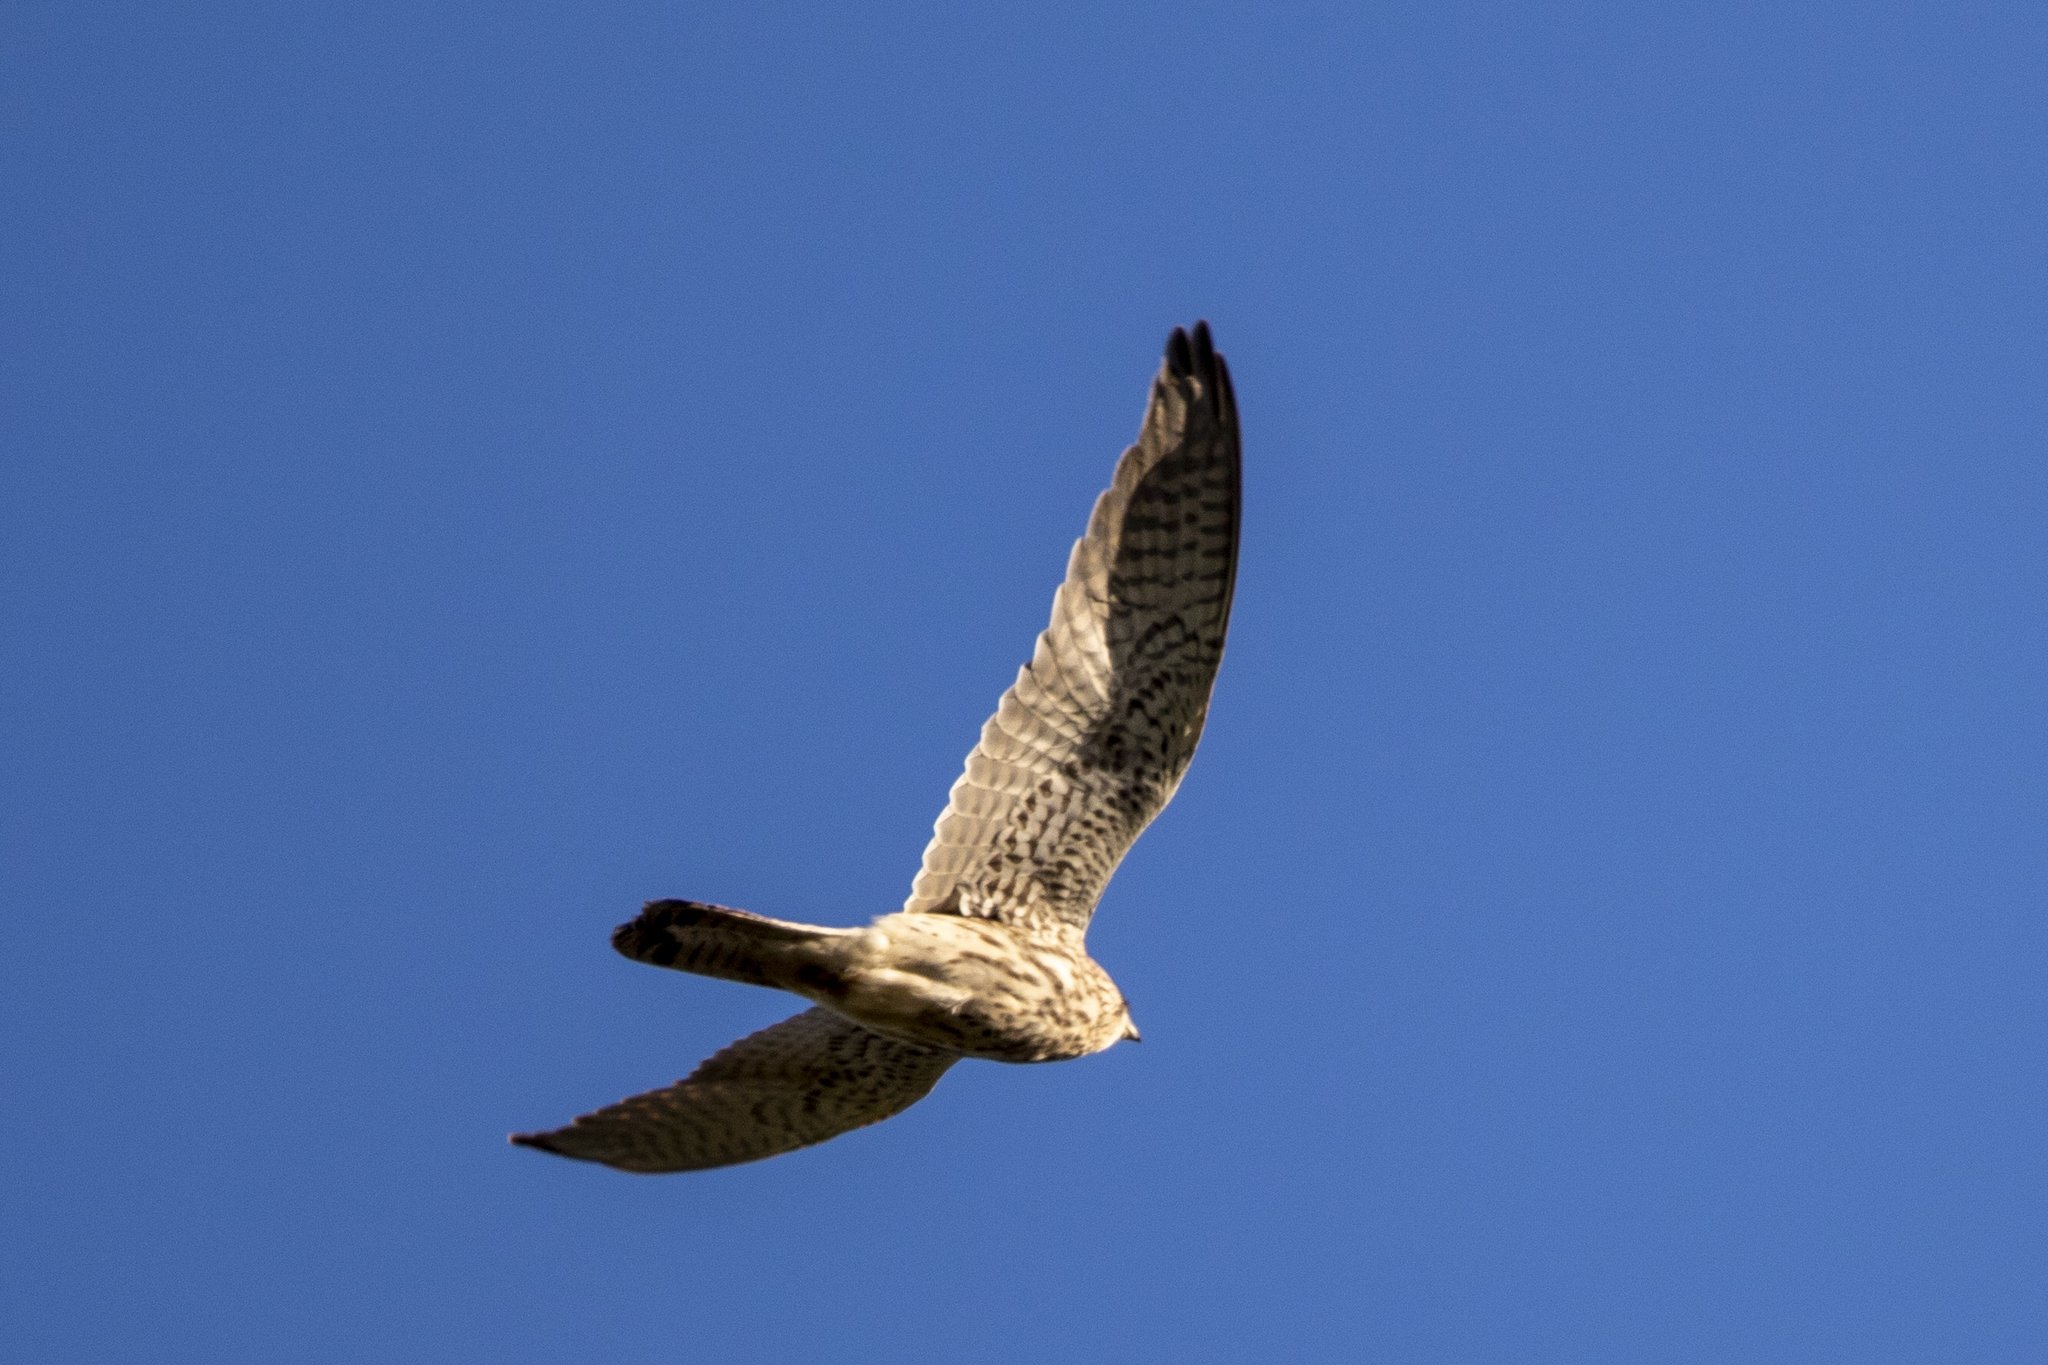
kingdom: Animalia
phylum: Chordata
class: Aves
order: Falconiformes
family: Falconidae
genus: Falco
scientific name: Falco tinnunculus
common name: Common kestrel
